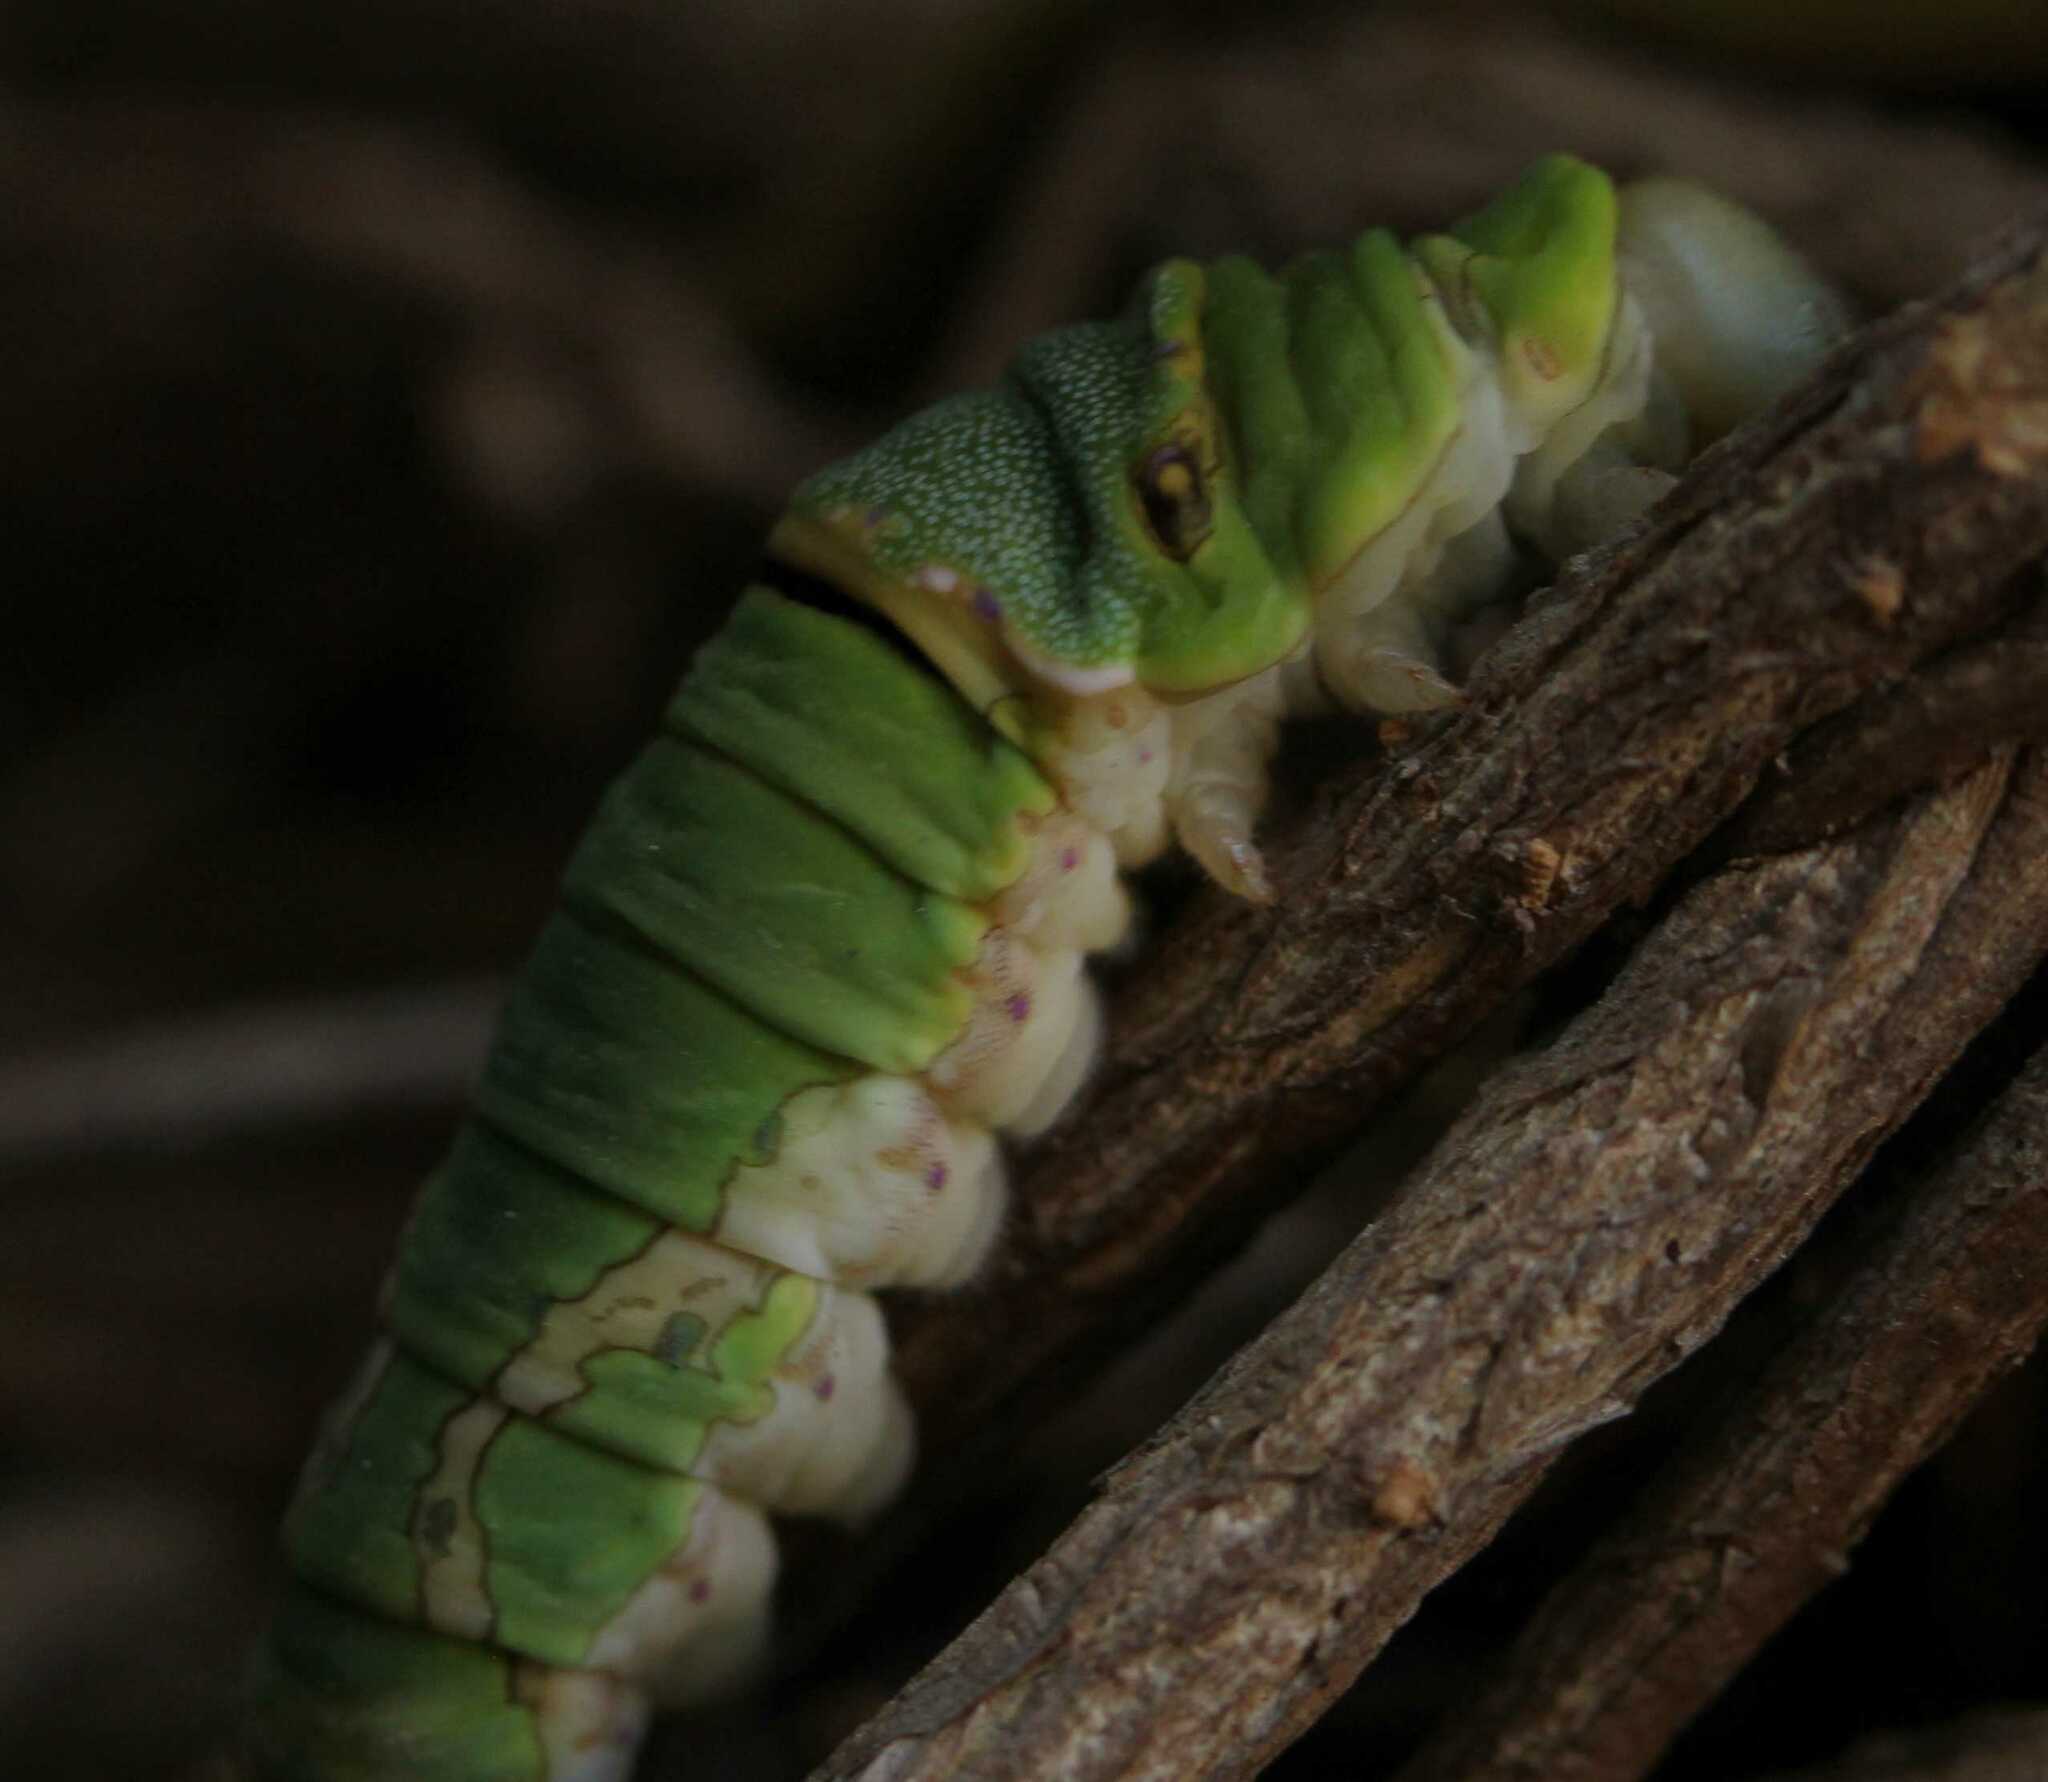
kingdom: Animalia
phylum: Arthropoda
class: Insecta
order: Lepidoptera
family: Papilionidae
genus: Papilio
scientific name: Papilio garamas
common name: Magnificent swallowtail
